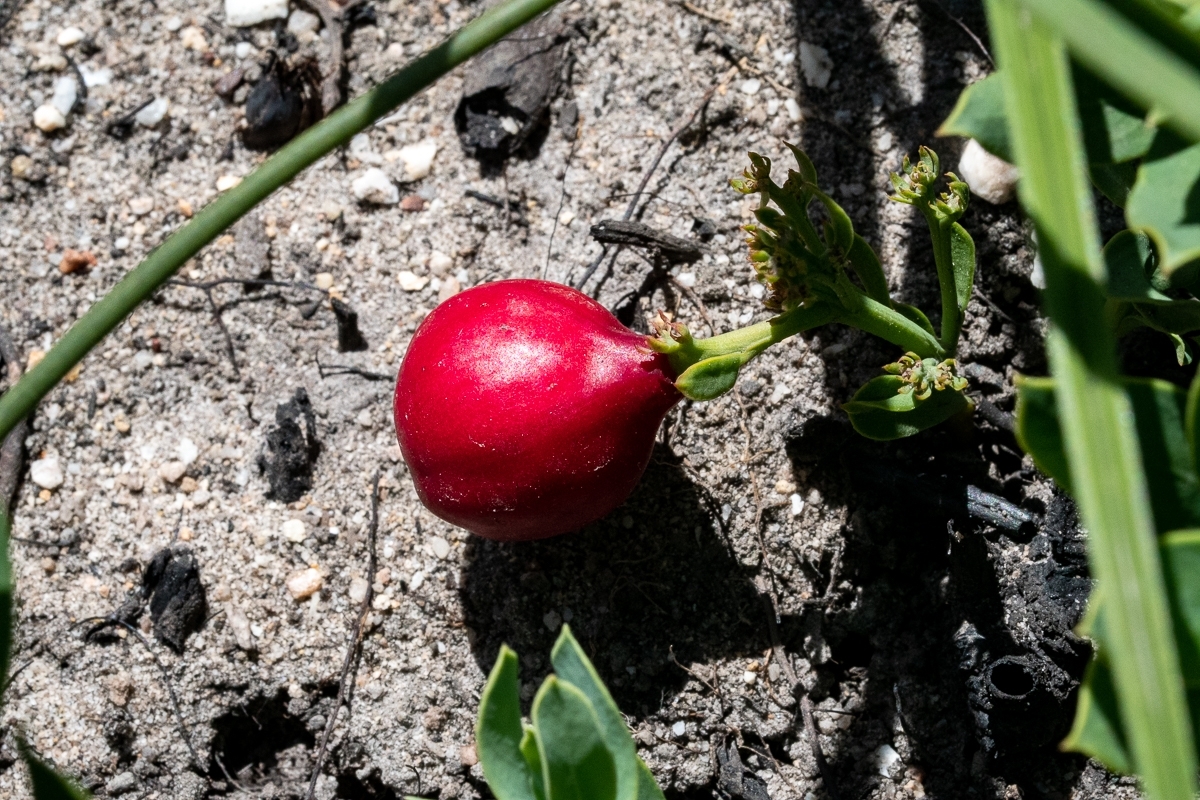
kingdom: Plantae
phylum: Tracheophyta
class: Magnoliopsida
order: Santalales
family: Santalaceae
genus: Osyris
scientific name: Osyris speciosa
